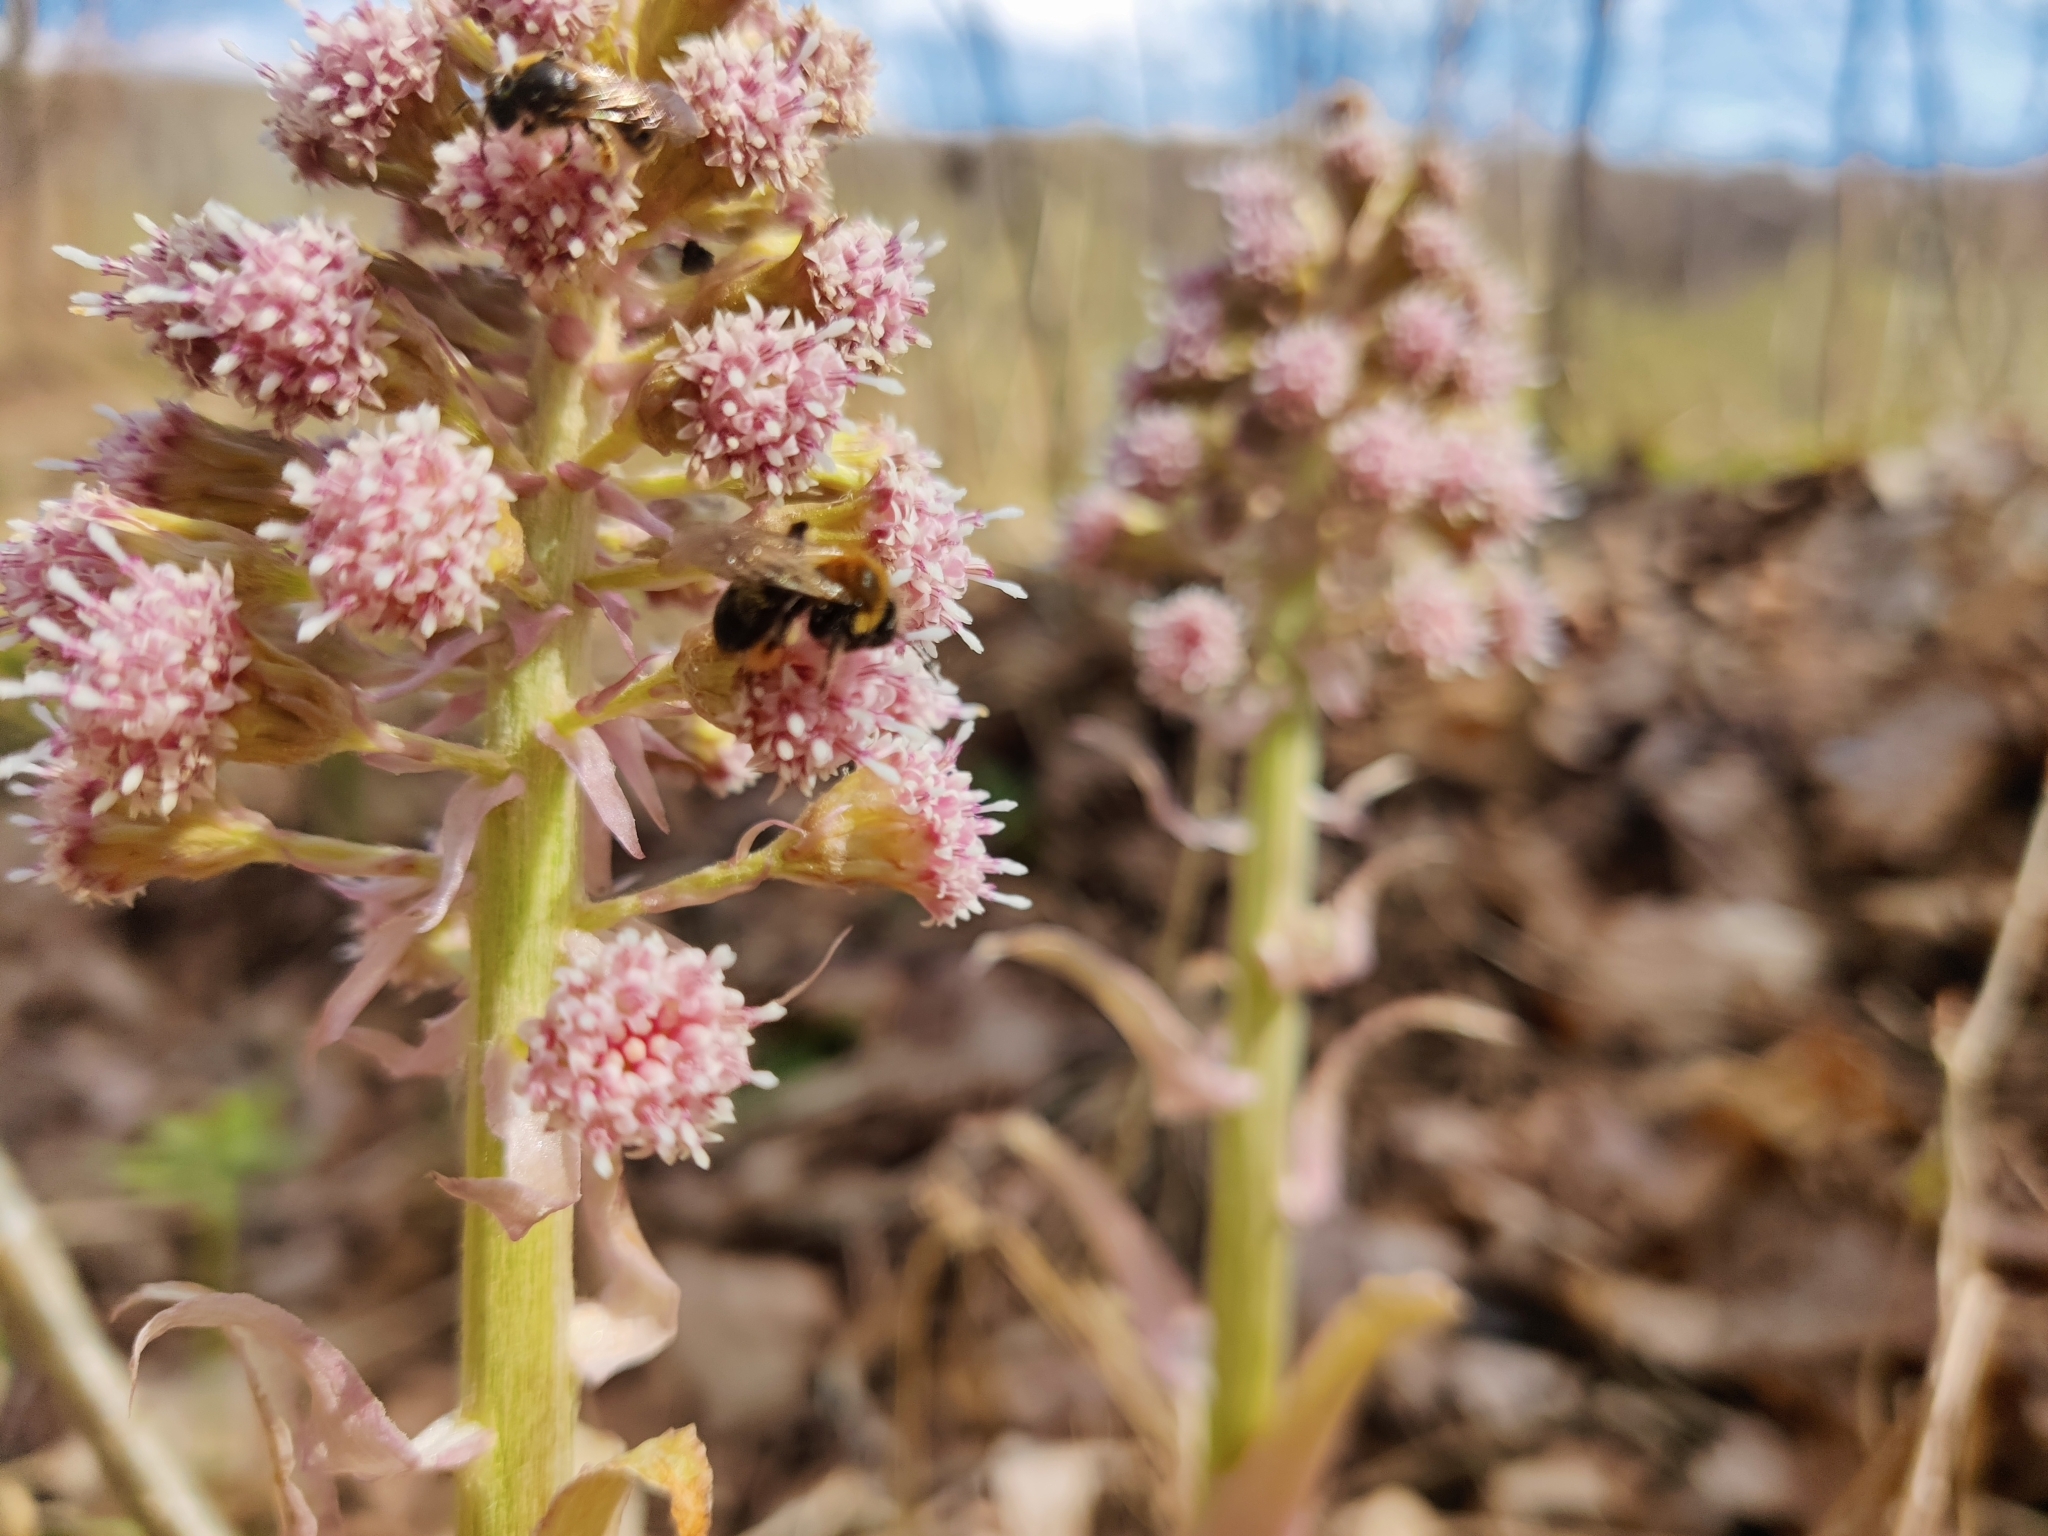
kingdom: Plantae
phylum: Tracheophyta
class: Magnoliopsida
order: Asterales
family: Asteraceae
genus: Petasites
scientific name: Petasites hybridus
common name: Butterbur
